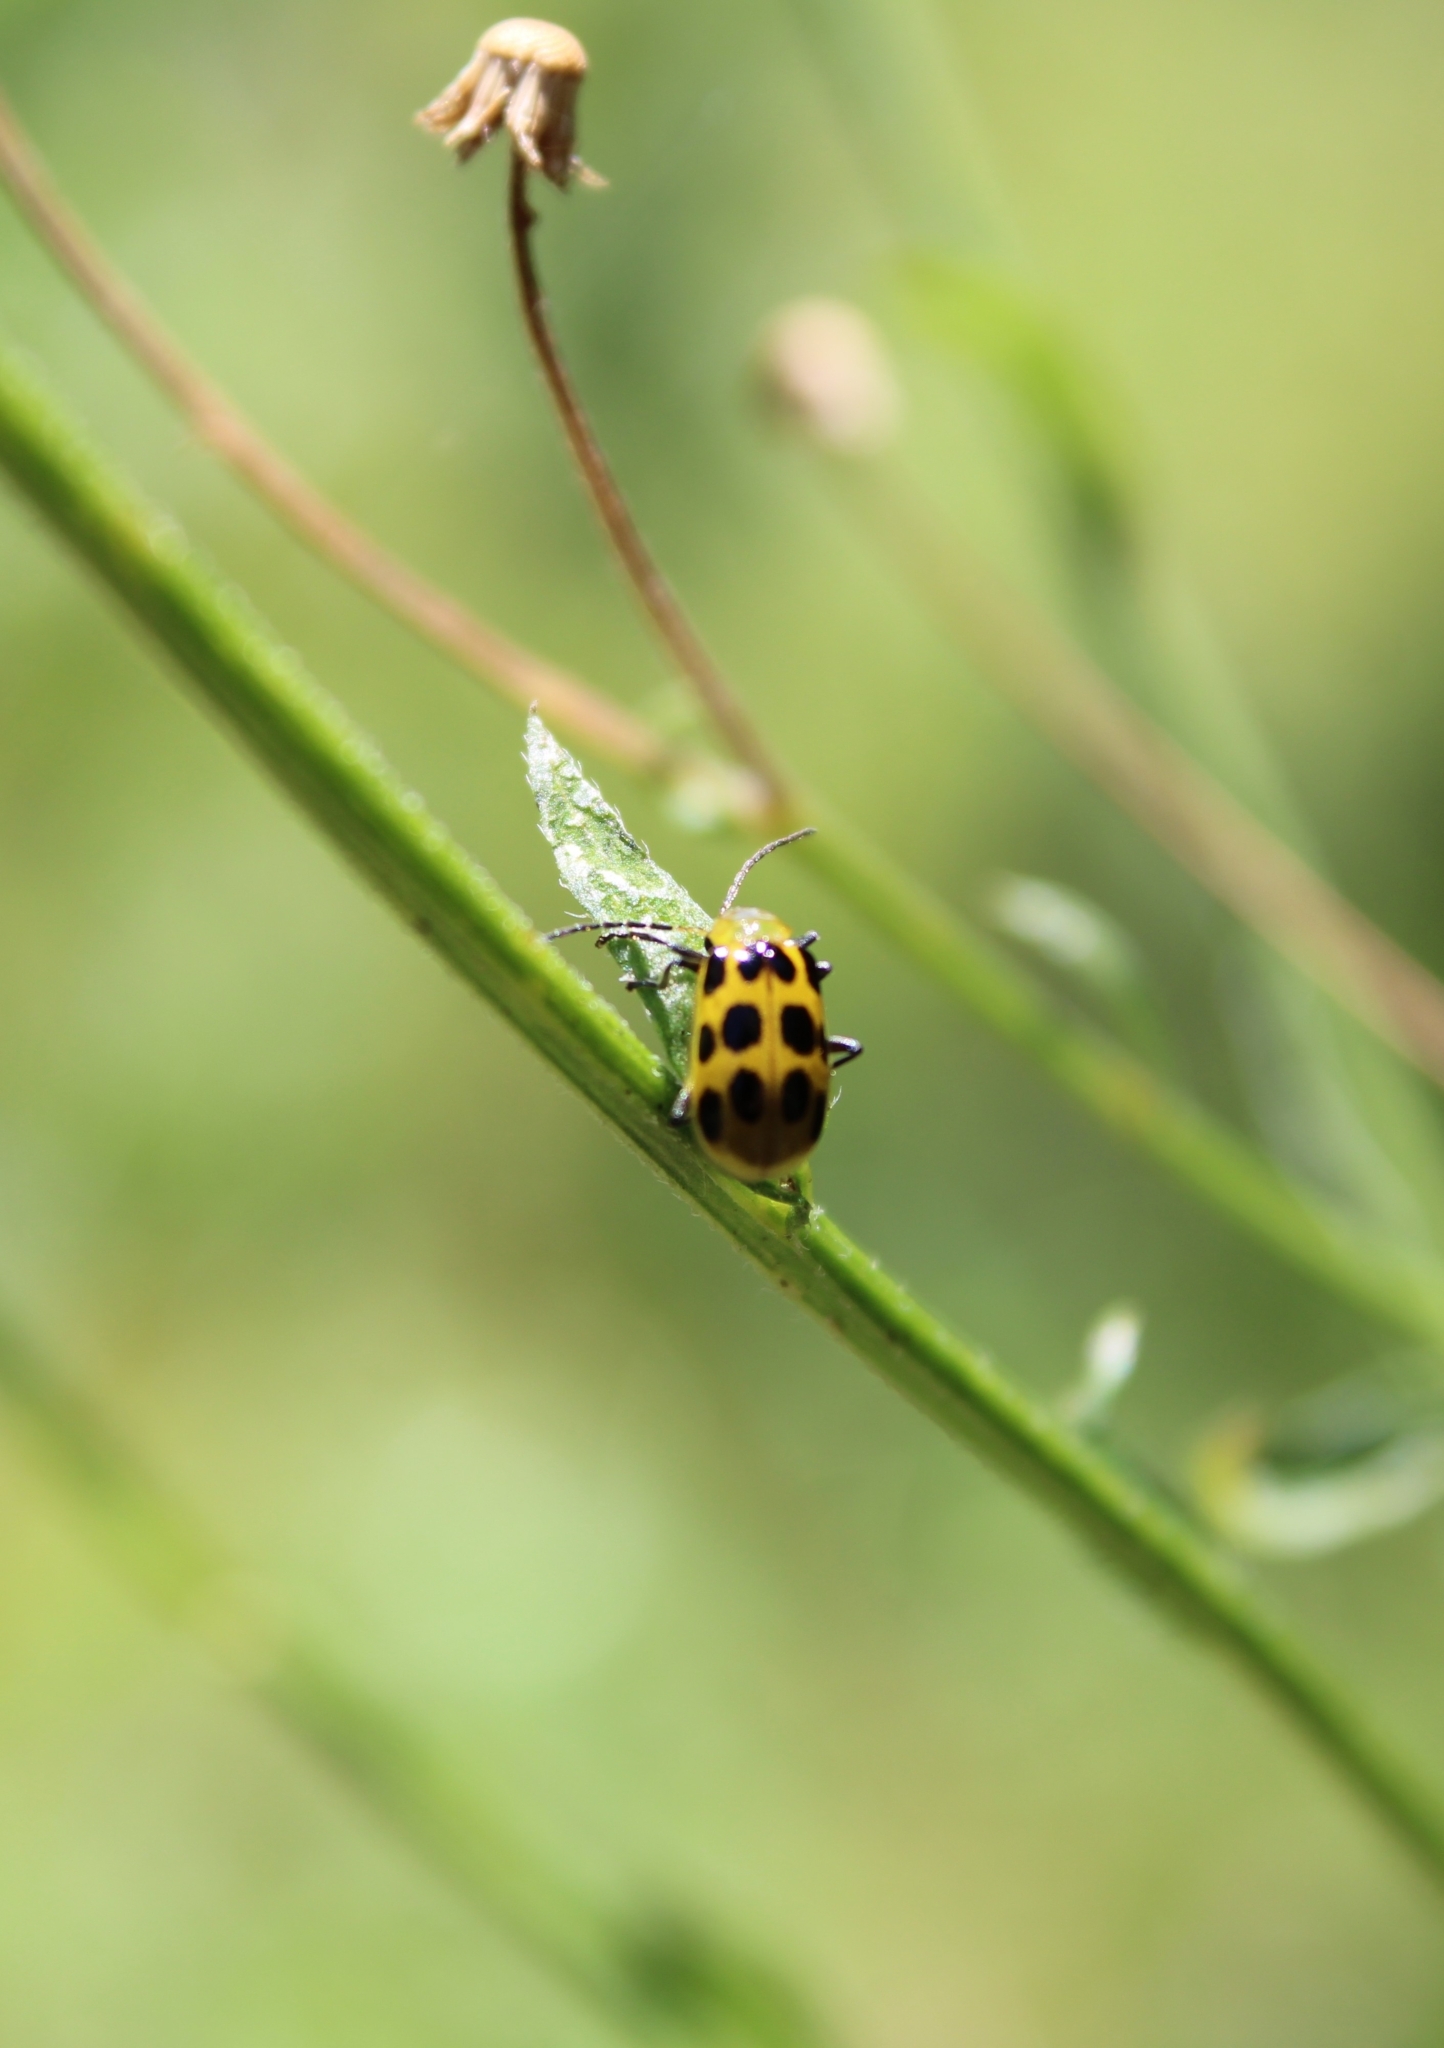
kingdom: Animalia
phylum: Arthropoda
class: Insecta
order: Coleoptera
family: Chrysomelidae
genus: Diabrotica
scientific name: Diabrotica undecimpunctata
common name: Spotted cucumber beetle
